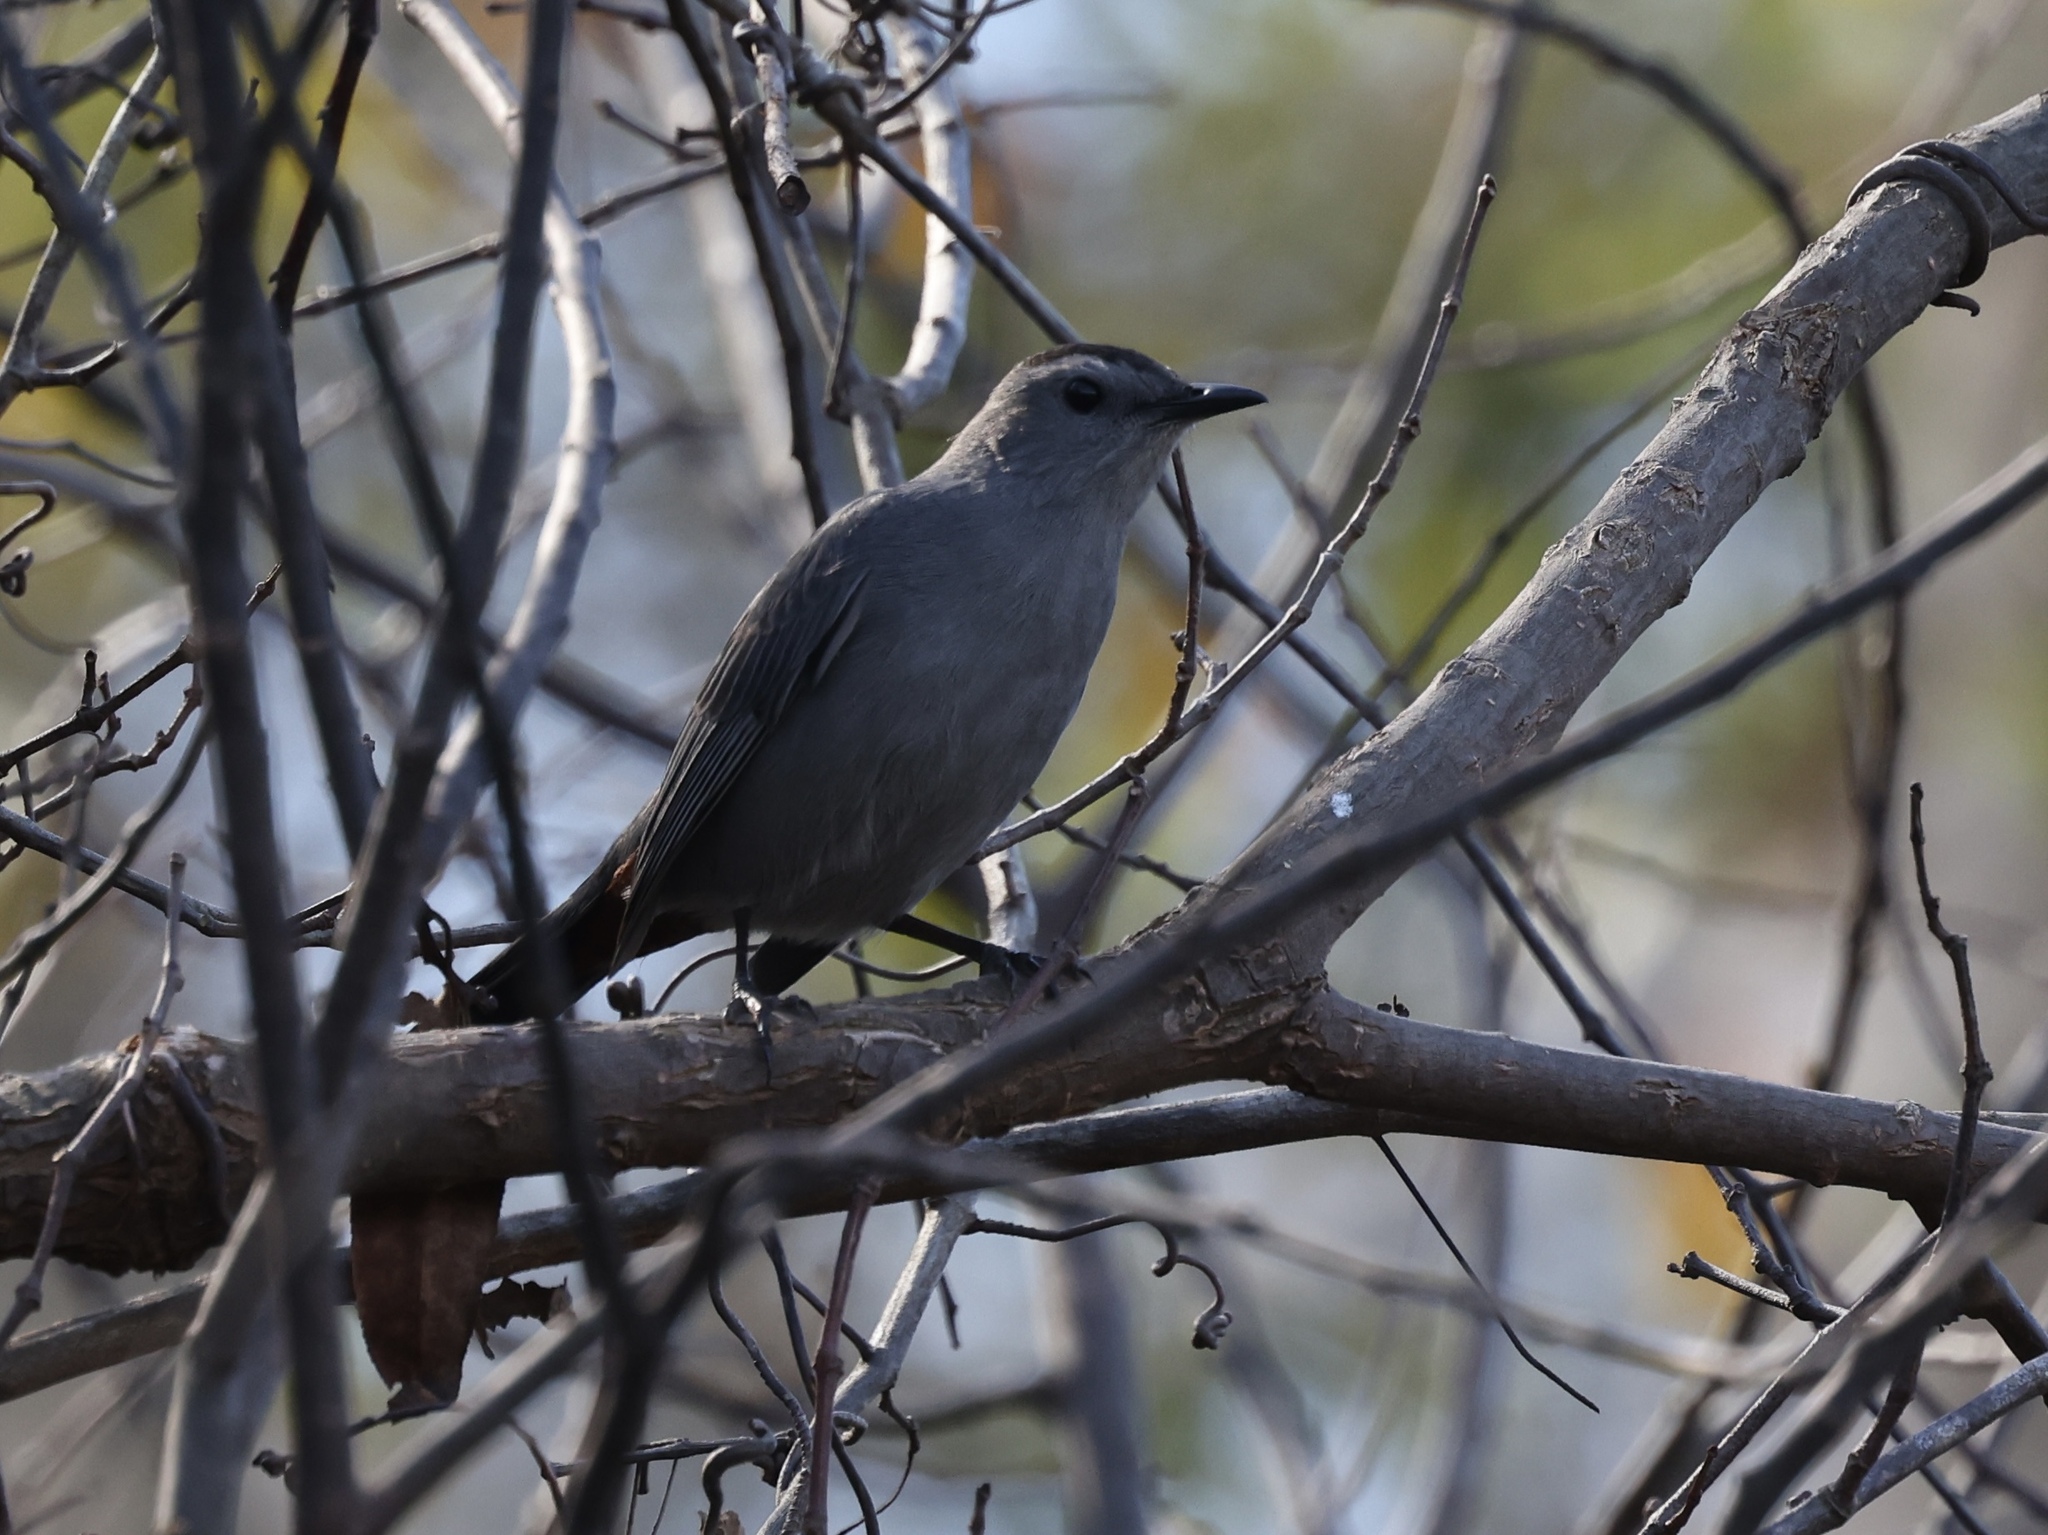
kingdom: Animalia
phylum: Chordata
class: Aves
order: Passeriformes
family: Mimidae
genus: Dumetella
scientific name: Dumetella carolinensis
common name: Gray catbird
